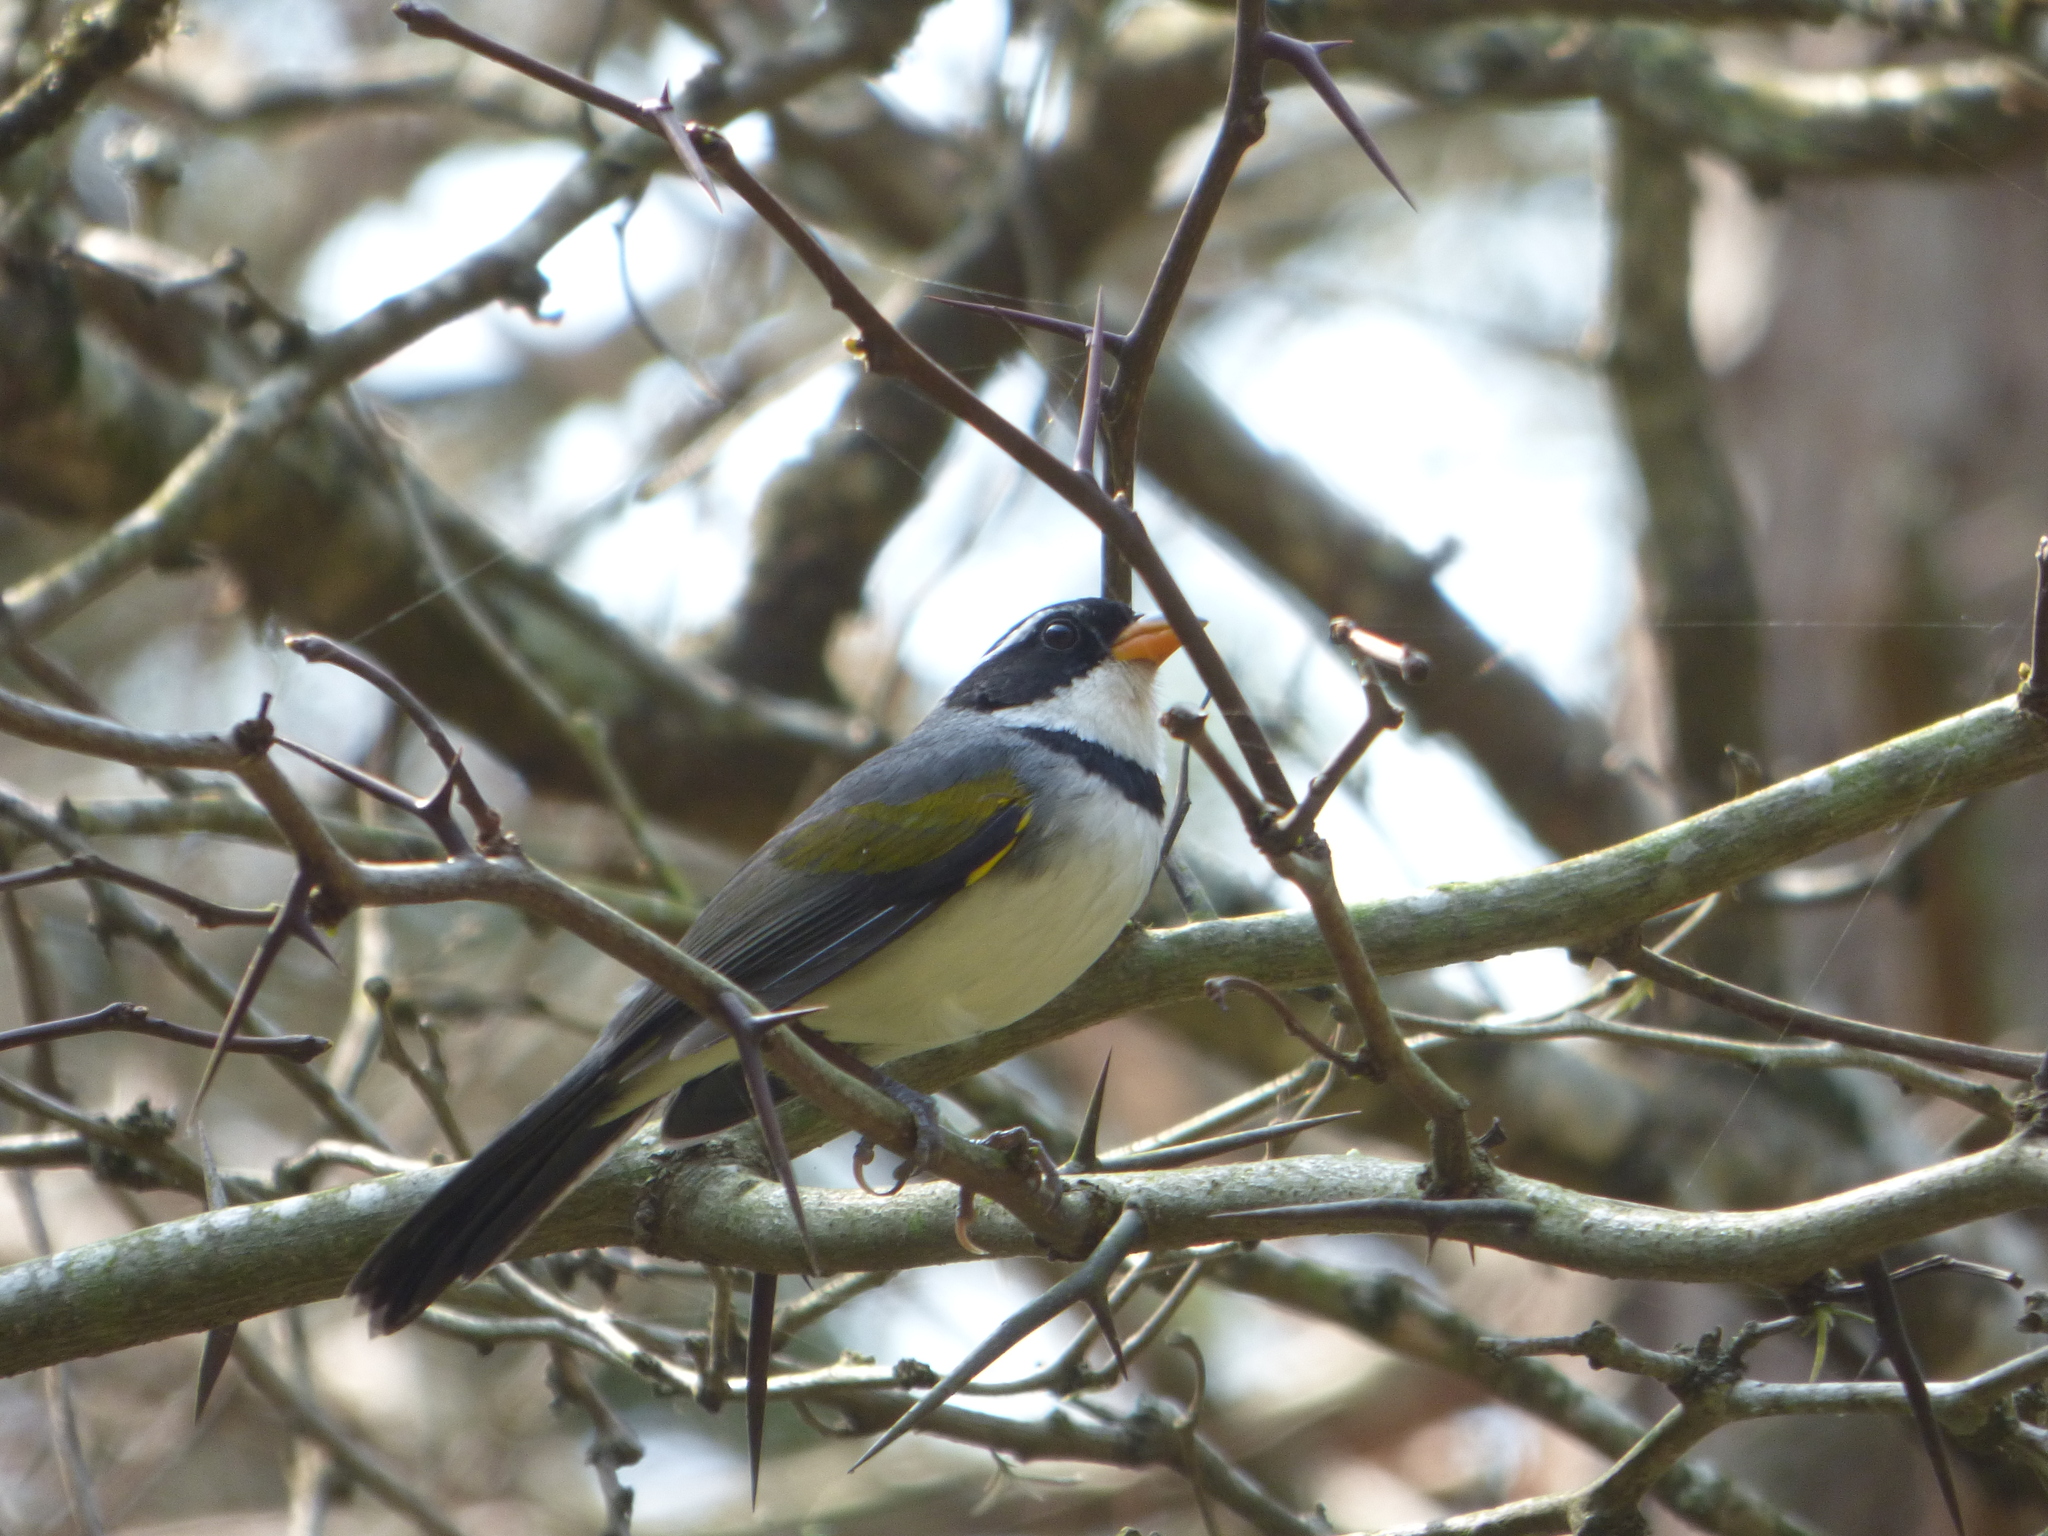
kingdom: Animalia
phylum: Chordata
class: Aves
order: Passeriformes
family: Passerellidae
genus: Arremon
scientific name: Arremon flavirostris
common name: Saffron-billed sparrow
